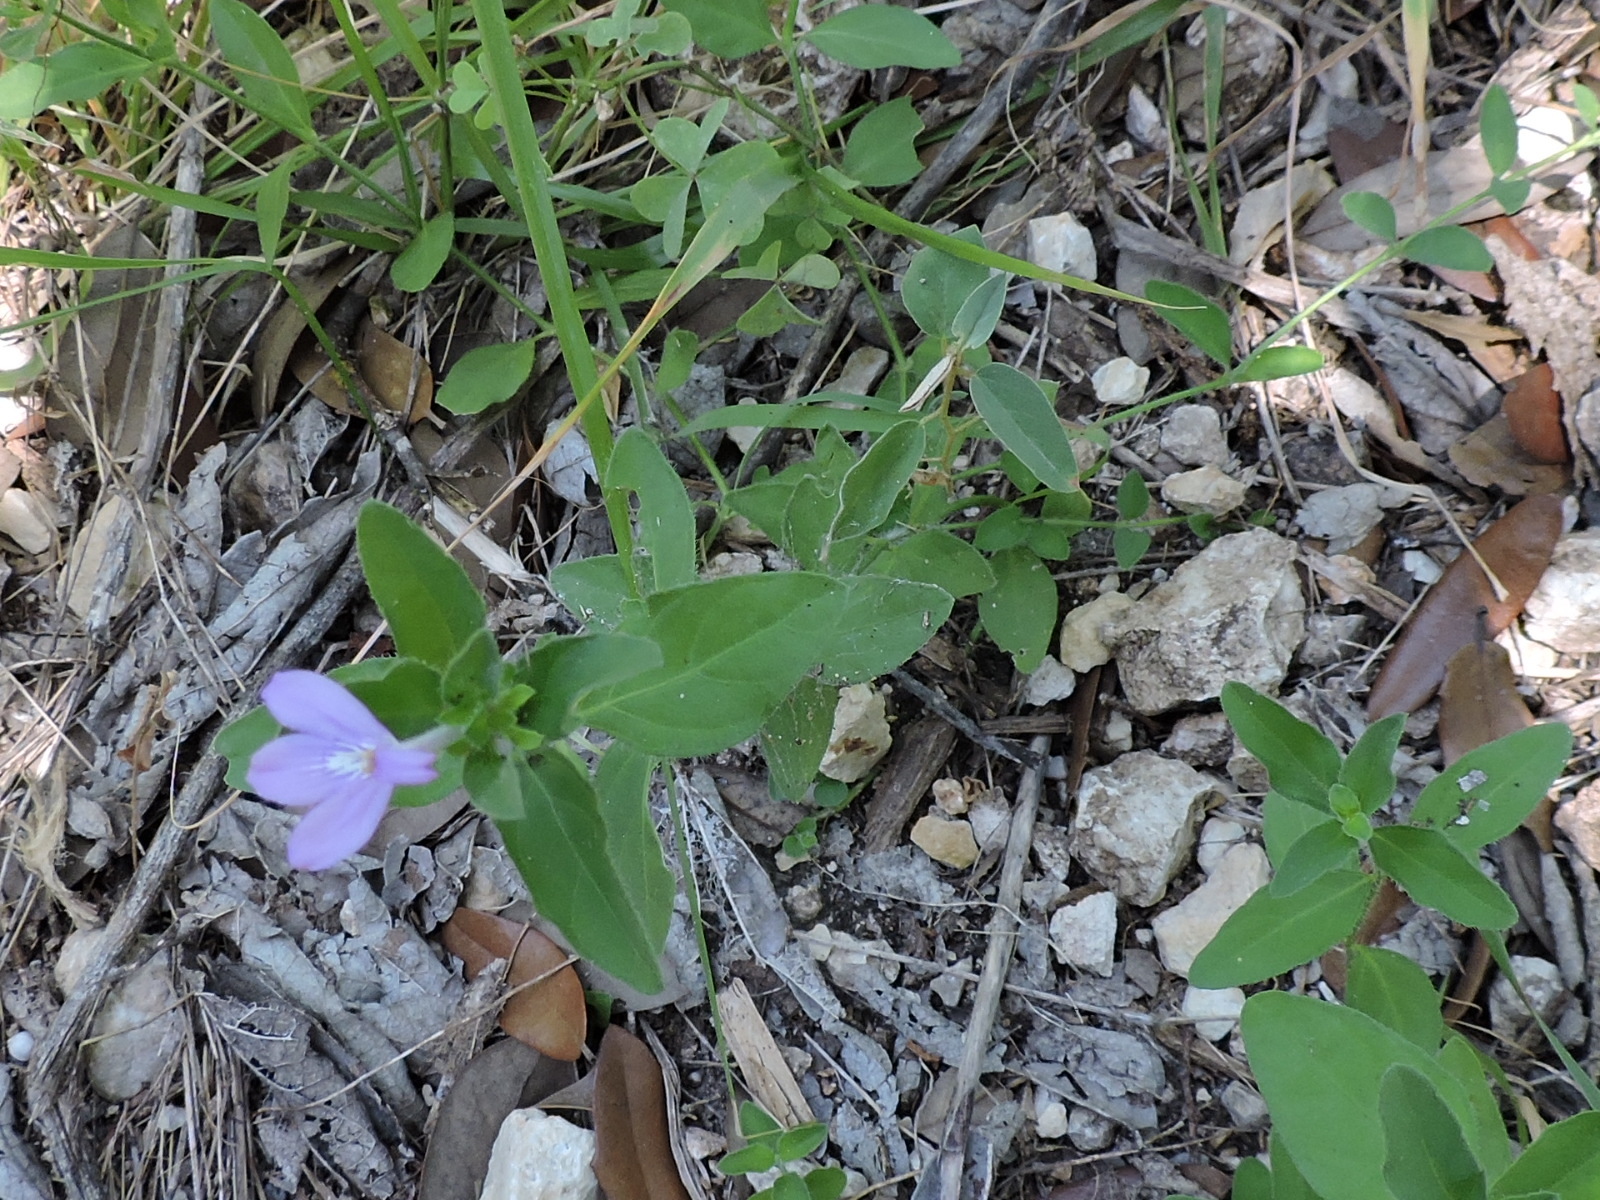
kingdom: Plantae
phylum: Tracheophyta
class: Magnoliopsida
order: Lamiales
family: Acanthaceae
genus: Justicia
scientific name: Justicia pilosella
